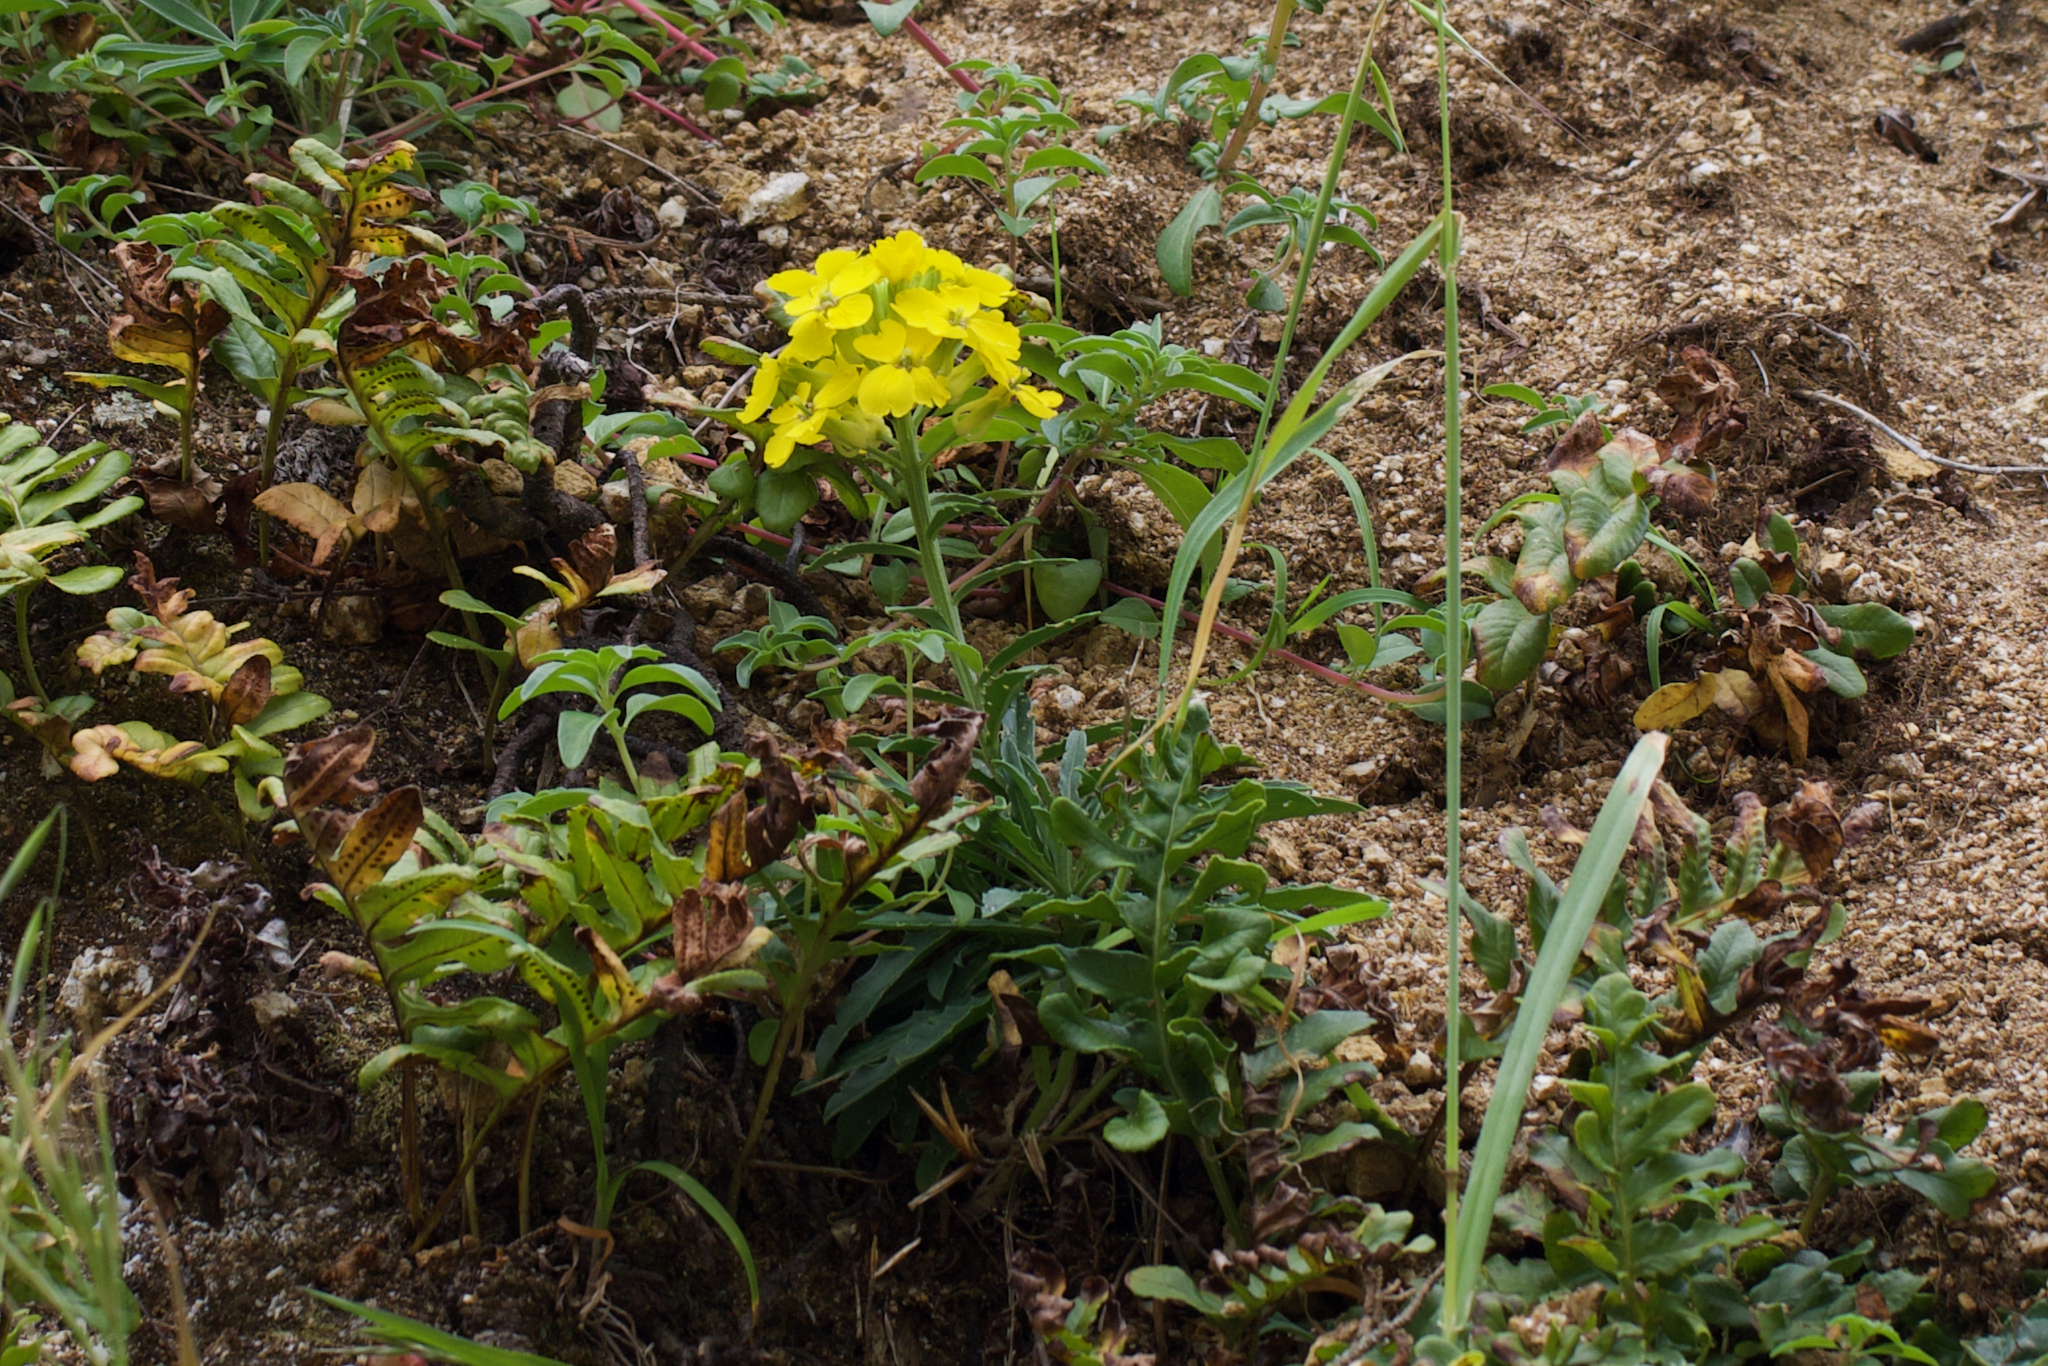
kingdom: Plantae
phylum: Tracheophyta
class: Magnoliopsida
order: Brassicales
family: Brassicaceae
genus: Erysimum
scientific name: Erysimum franciscanum
